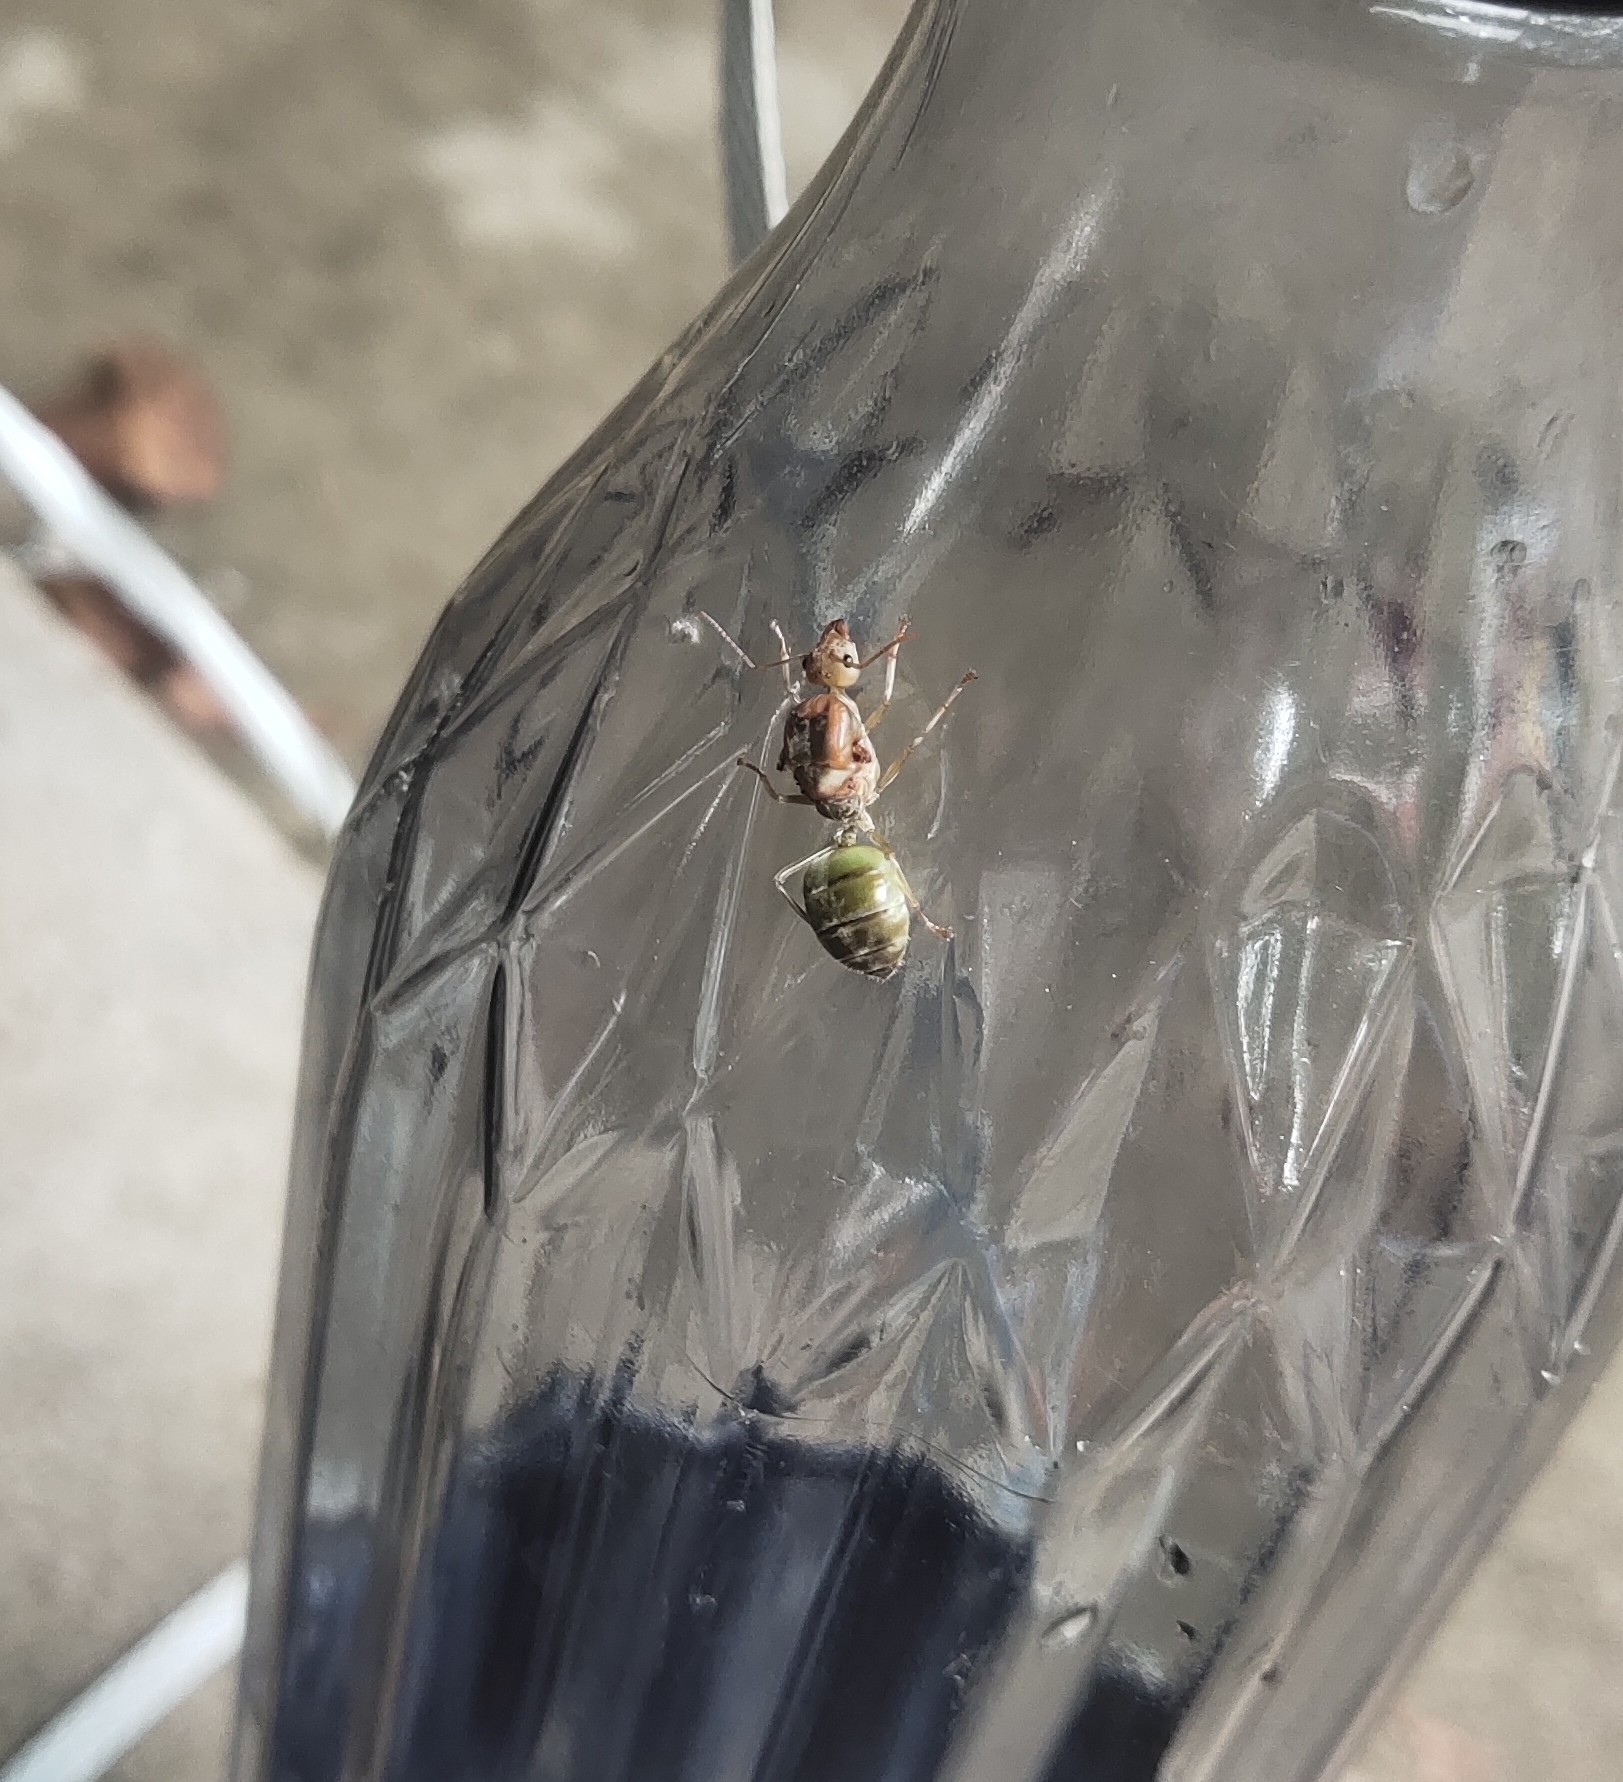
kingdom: Animalia
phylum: Arthropoda
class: Insecta
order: Hymenoptera
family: Formicidae
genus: Oecophylla
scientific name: Oecophylla smaragdina
